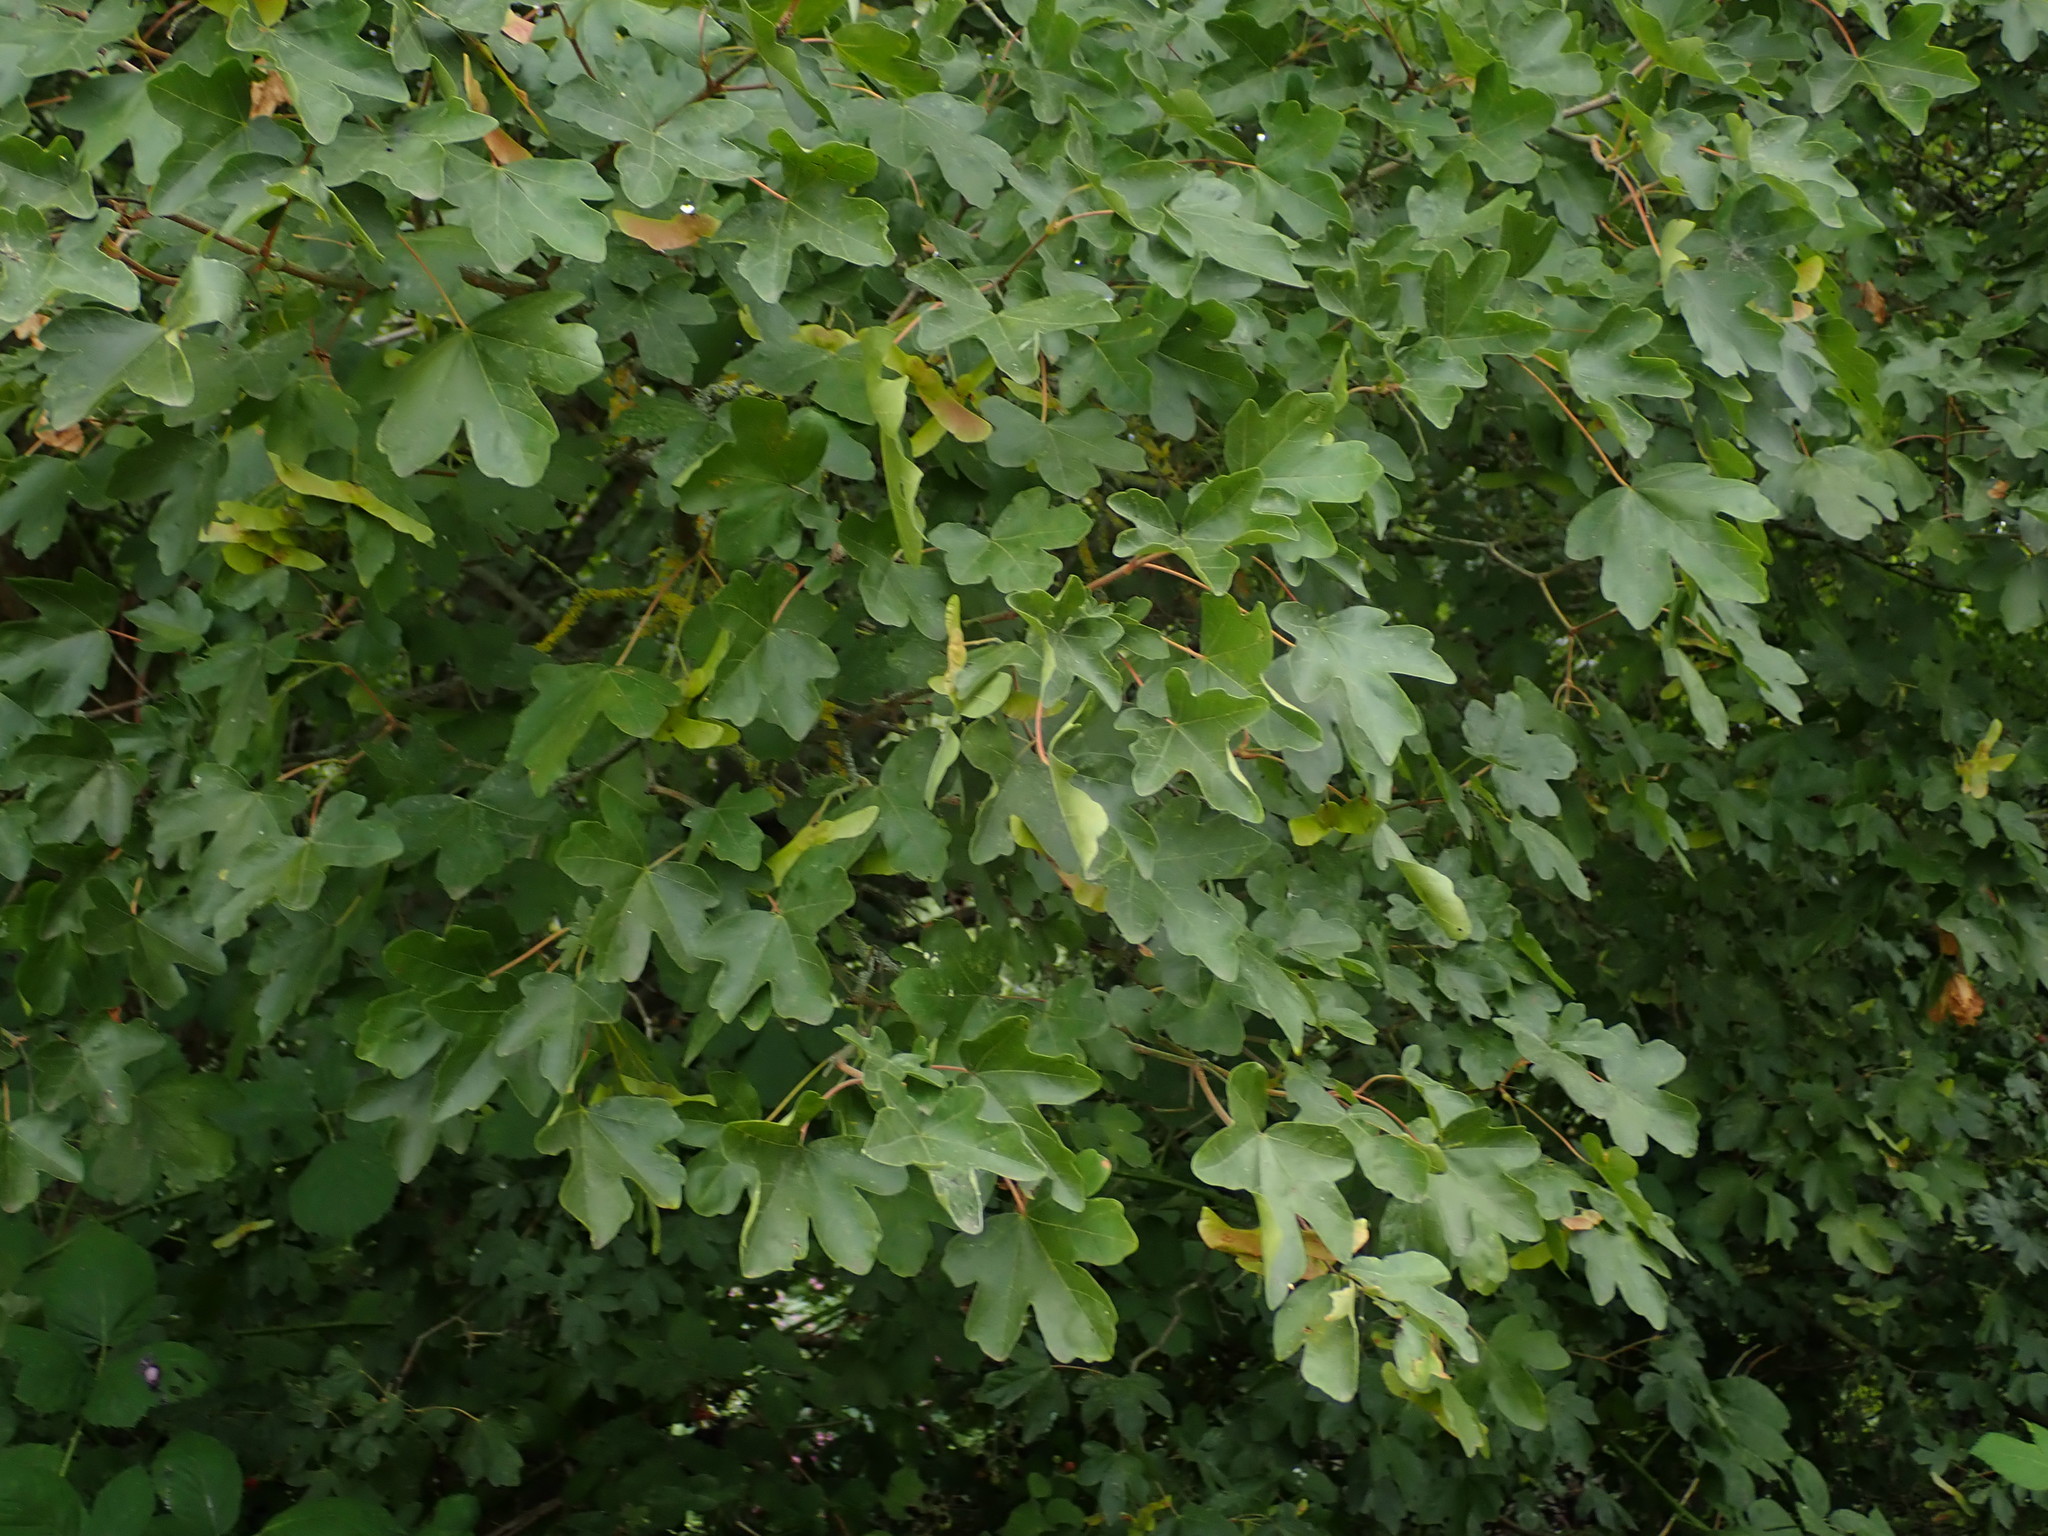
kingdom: Plantae
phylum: Tracheophyta
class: Magnoliopsida
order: Sapindales
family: Sapindaceae
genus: Acer
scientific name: Acer campestre
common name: Field maple
